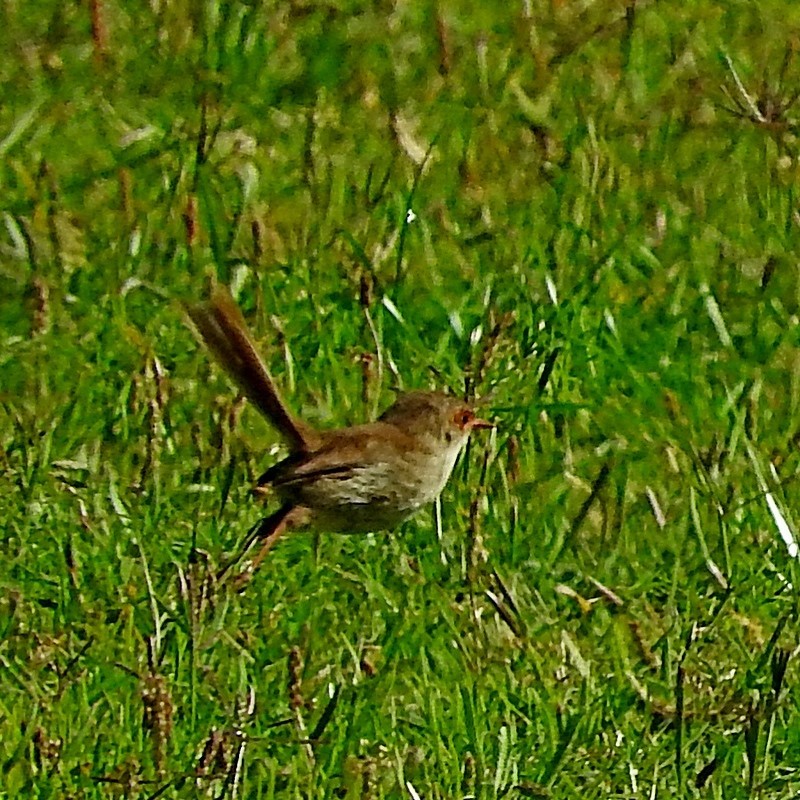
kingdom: Animalia
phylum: Chordata
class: Aves
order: Passeriformes
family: Maluridae
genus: Malurus
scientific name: Malurus cyaneus
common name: Superb fairywren
